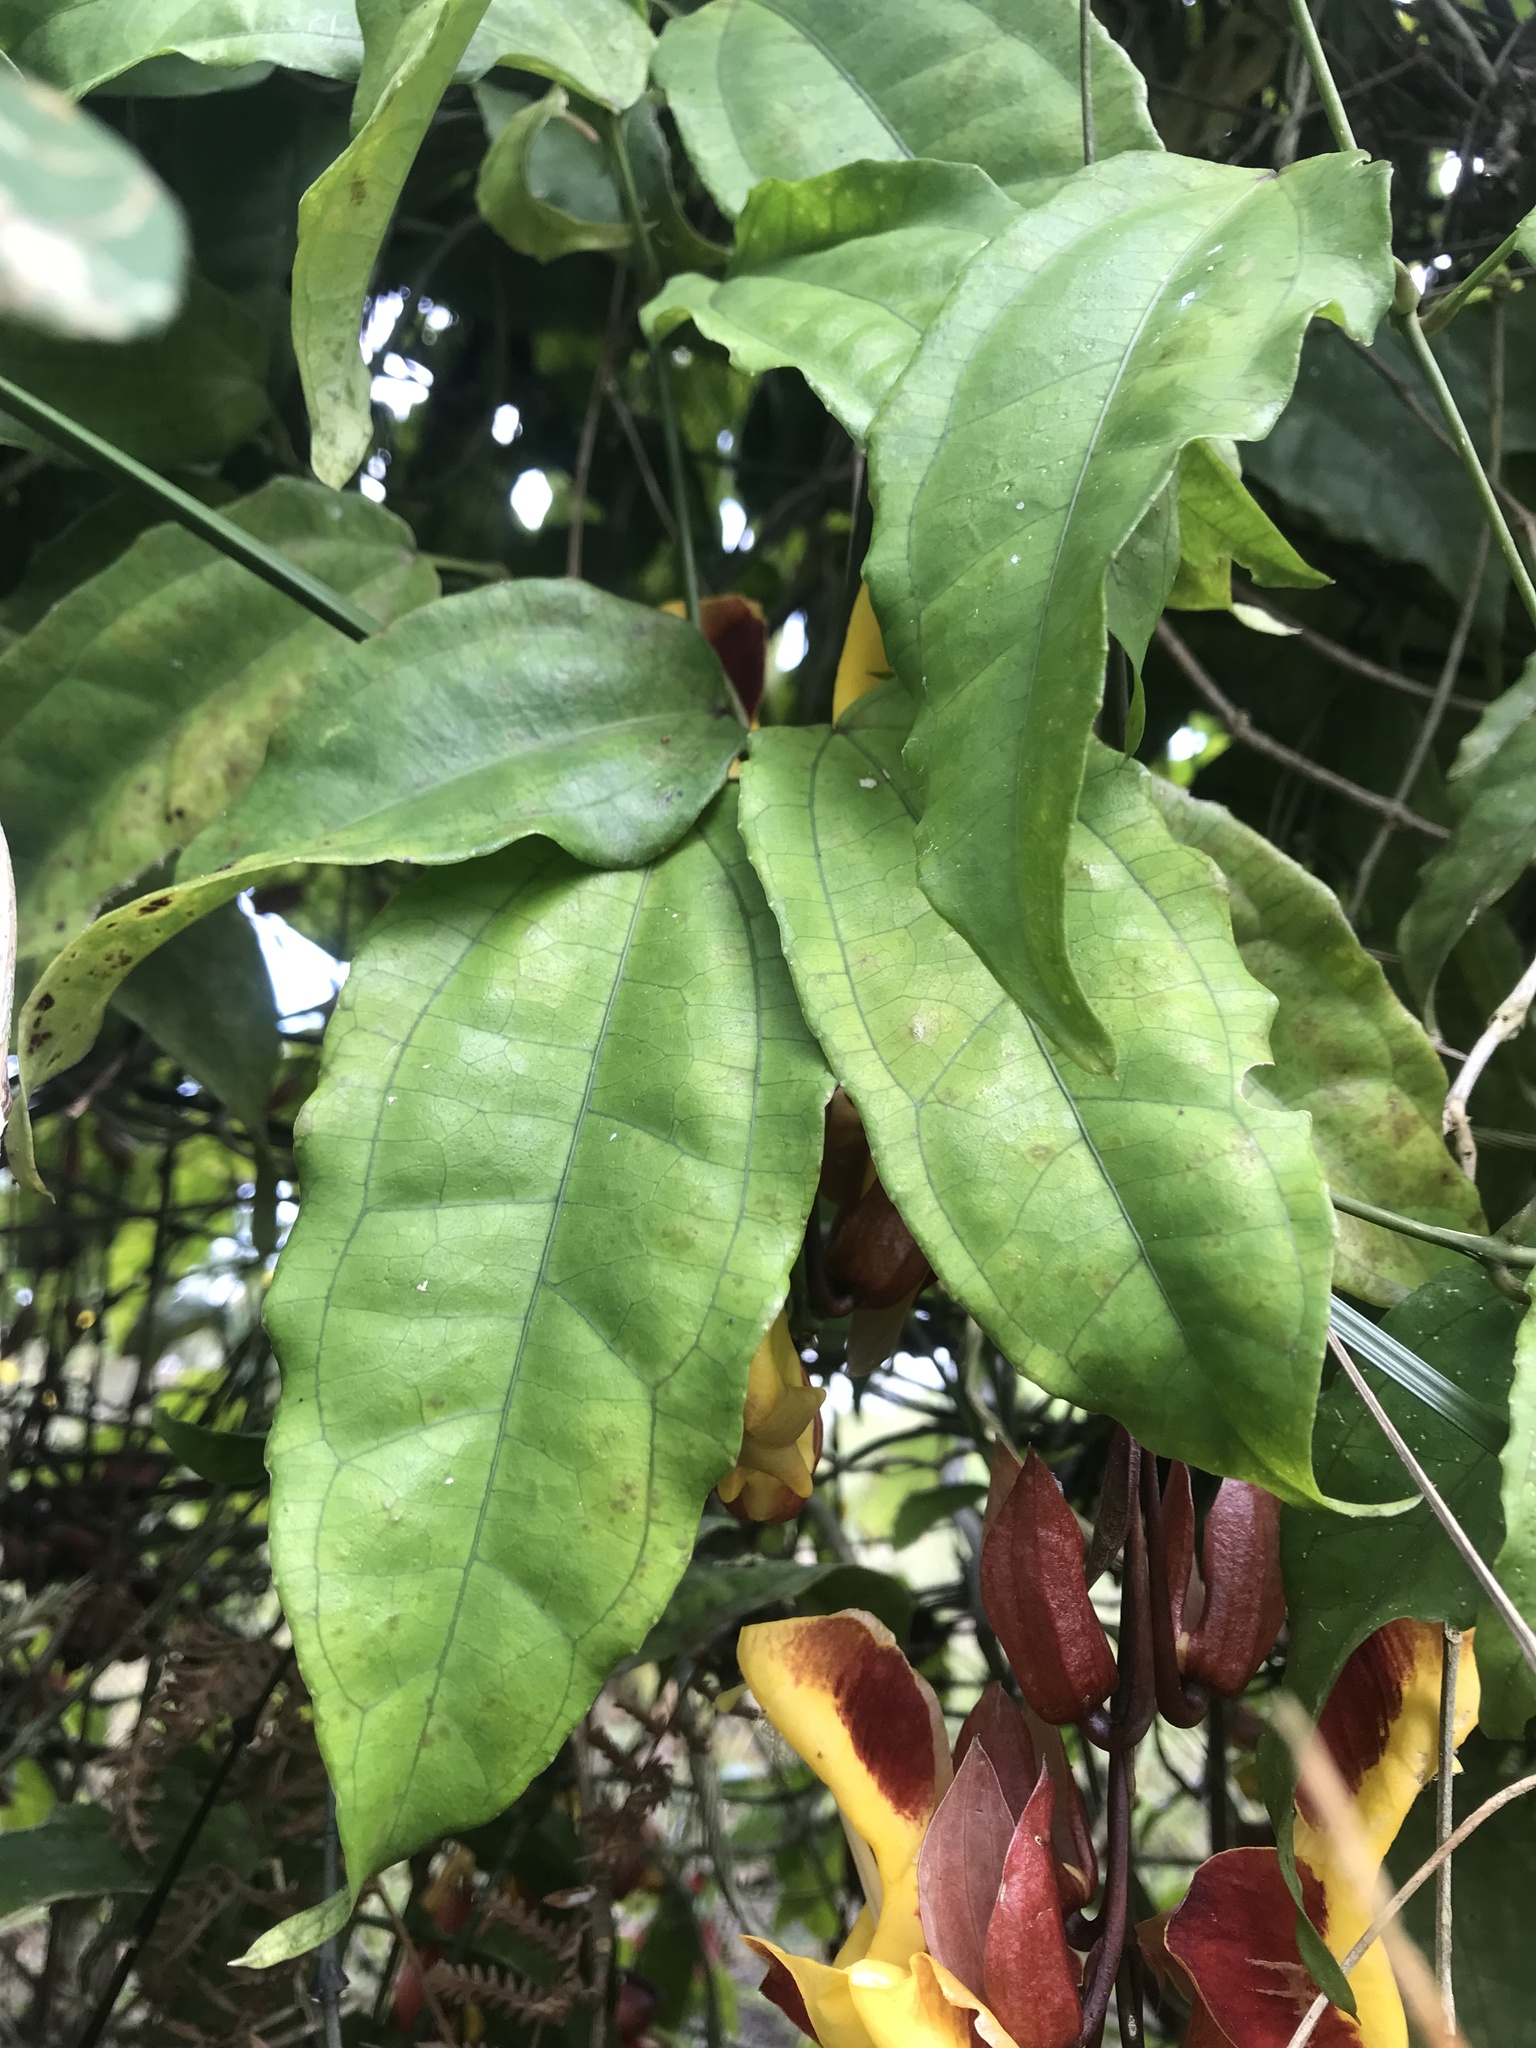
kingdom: Plantae
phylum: Tracheophyta
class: Magnoliopsida
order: Lamiales
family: Acanthaceae
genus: Thunbergia
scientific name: Thunbergia mysorensis
